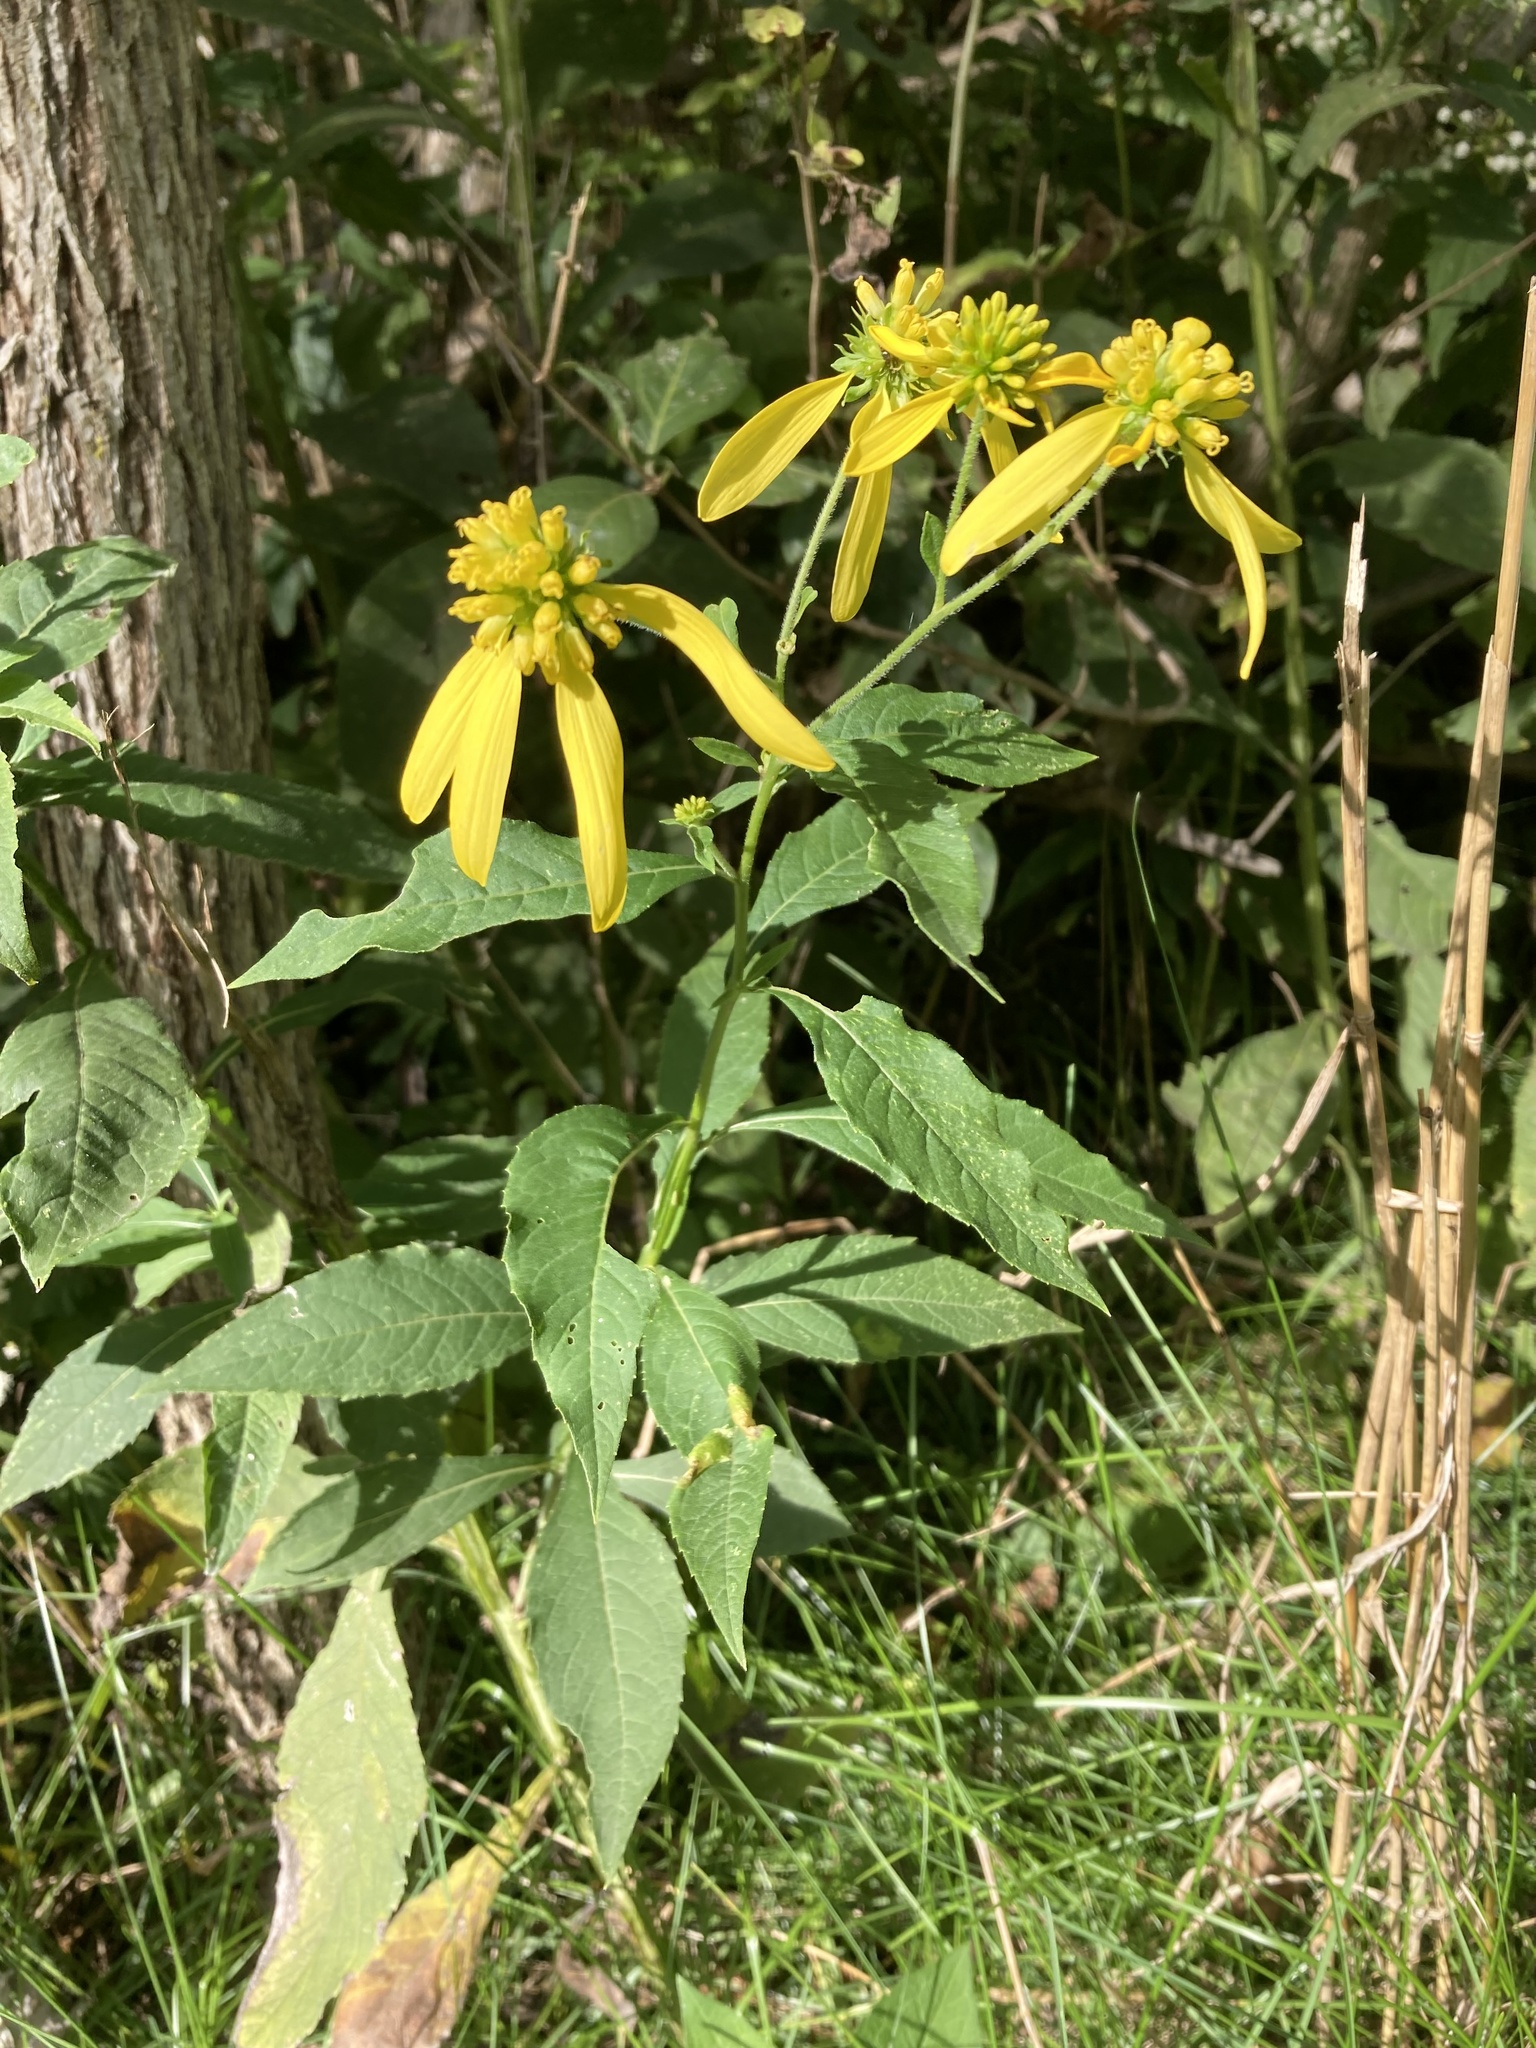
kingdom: Plantae
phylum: Tracheophyta
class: Magnoliopsida
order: Asterales
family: Asteraceae
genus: Verbesina
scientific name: Verbesina alternifolia
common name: Wingstem
